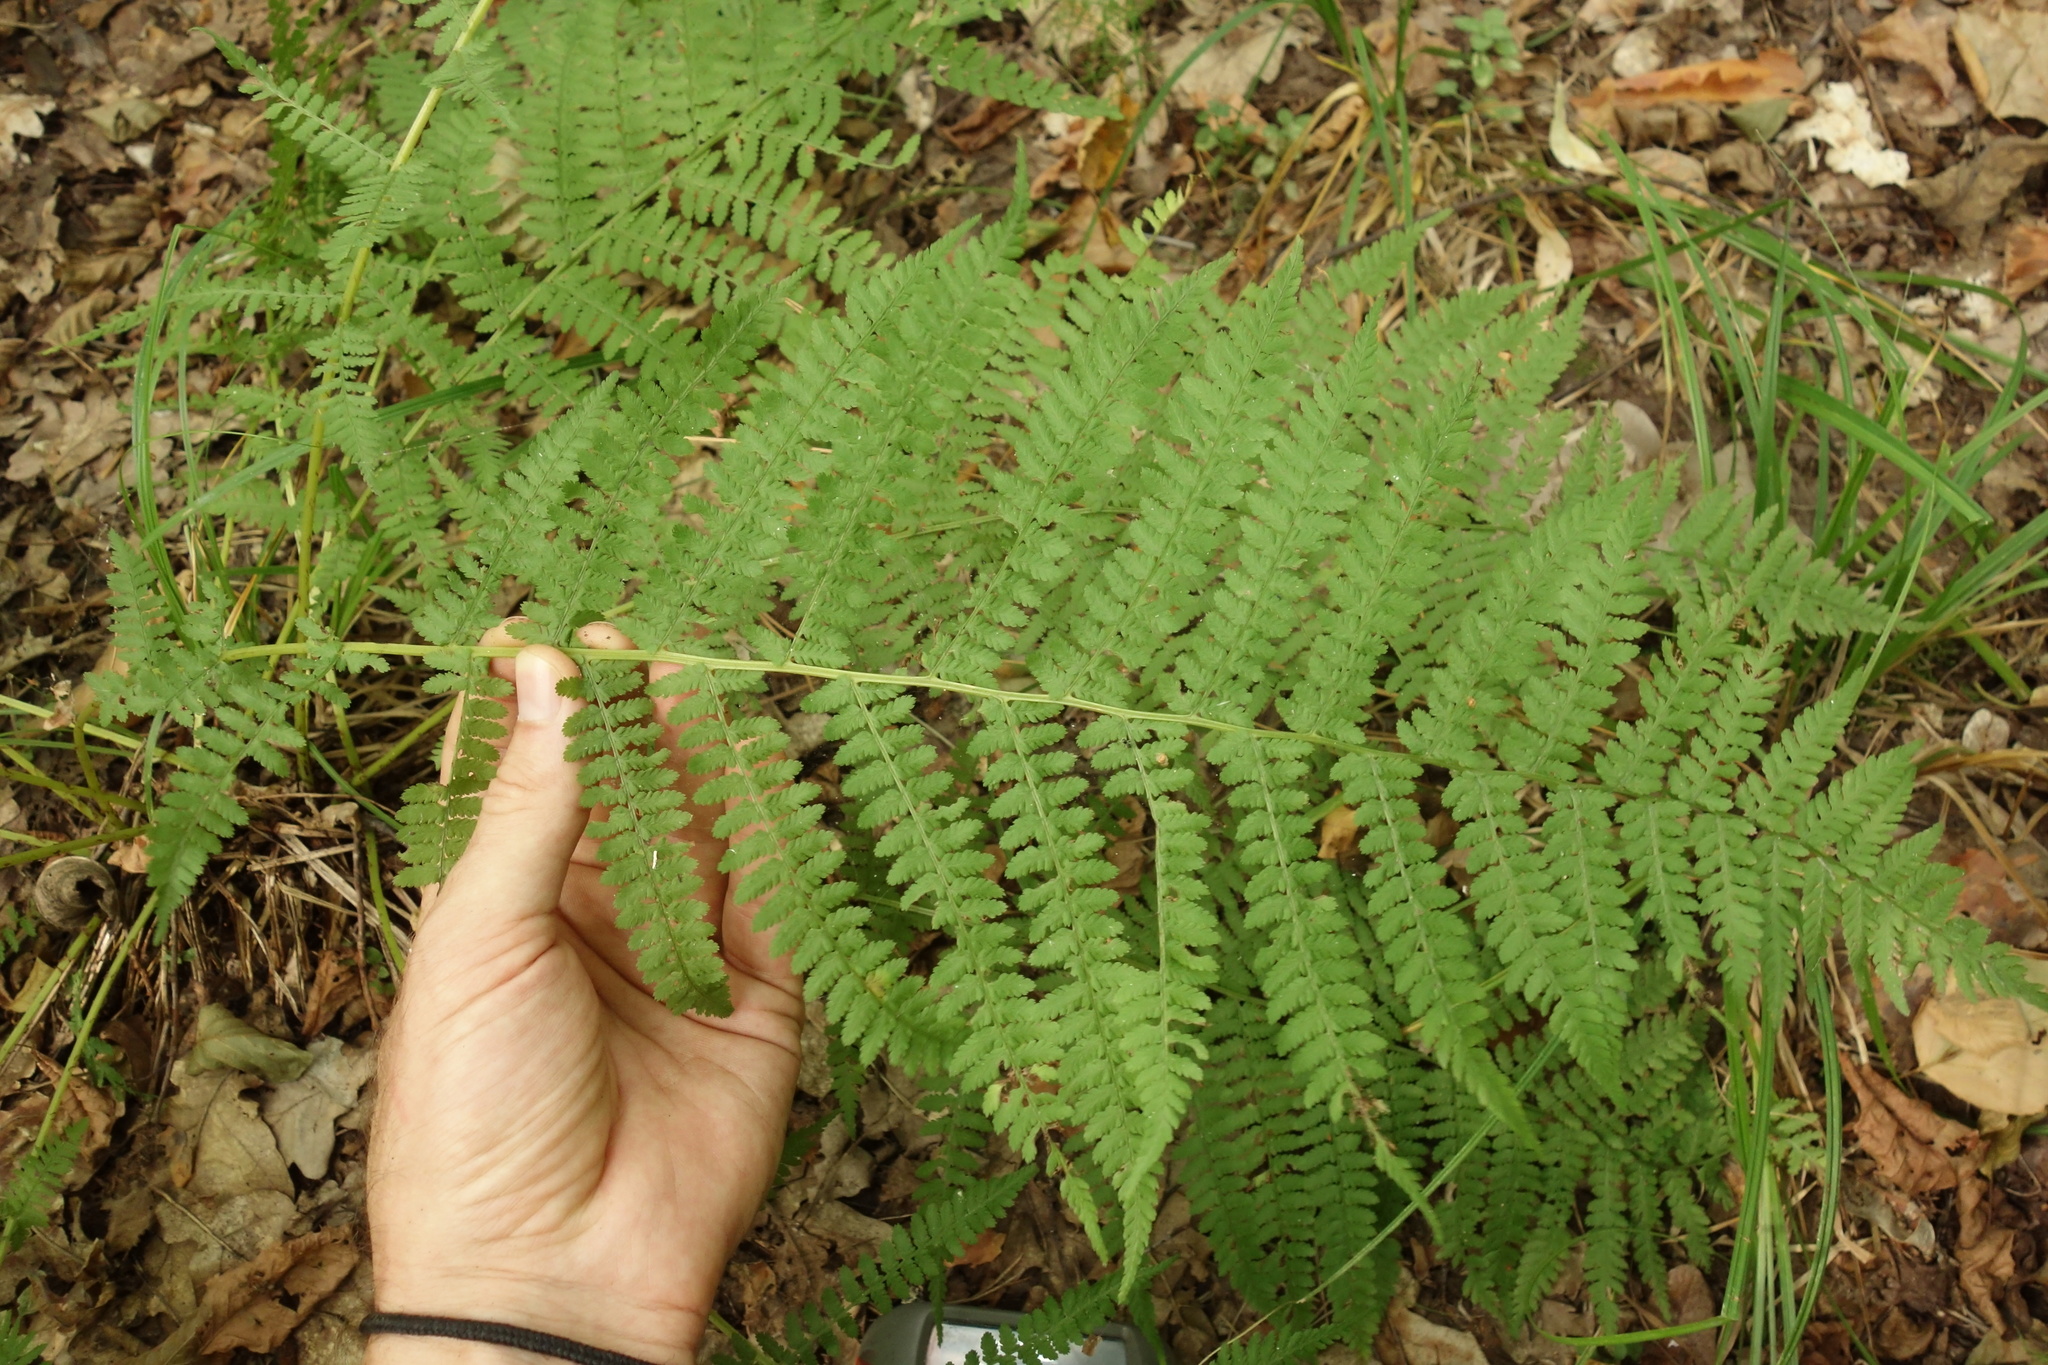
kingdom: Plantae
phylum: Tracheophyta
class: Polypodiopsida
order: Polypodiales
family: Athyriaceae
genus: Athyrium
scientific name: Athyrium filix-femina
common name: Lady fern
